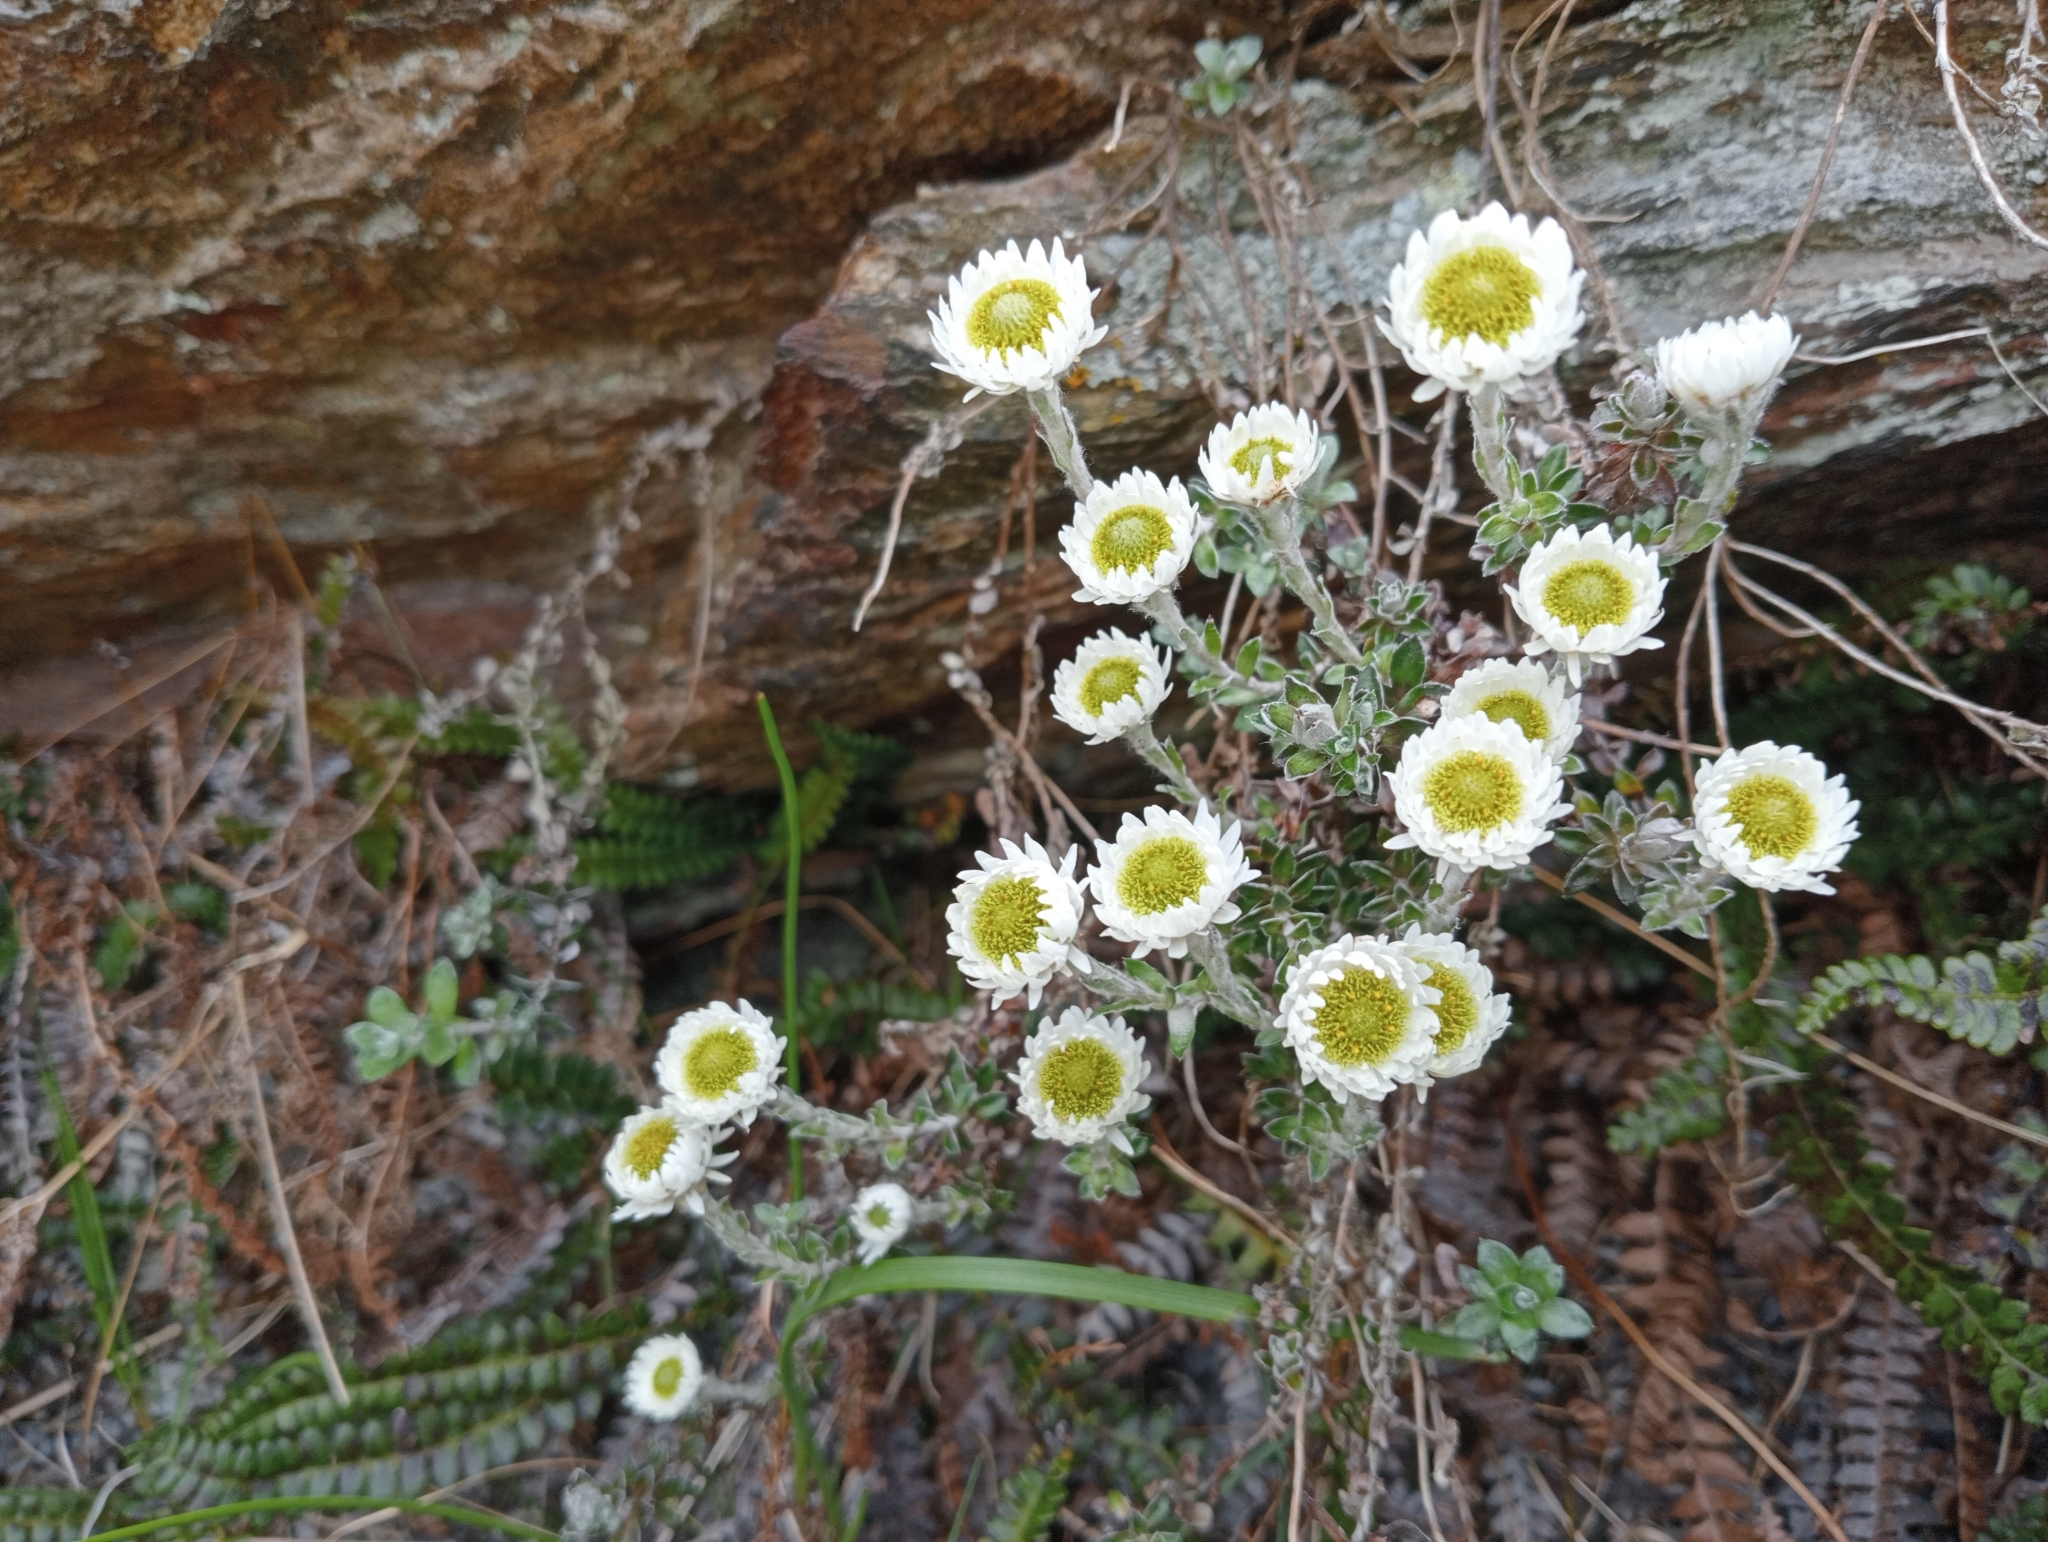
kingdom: Plantae
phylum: Tracheophyta
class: Magnoliopsida
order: Asterales
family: Asteraceae
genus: Anaphalioides
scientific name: Anaphalioides bellidioides
